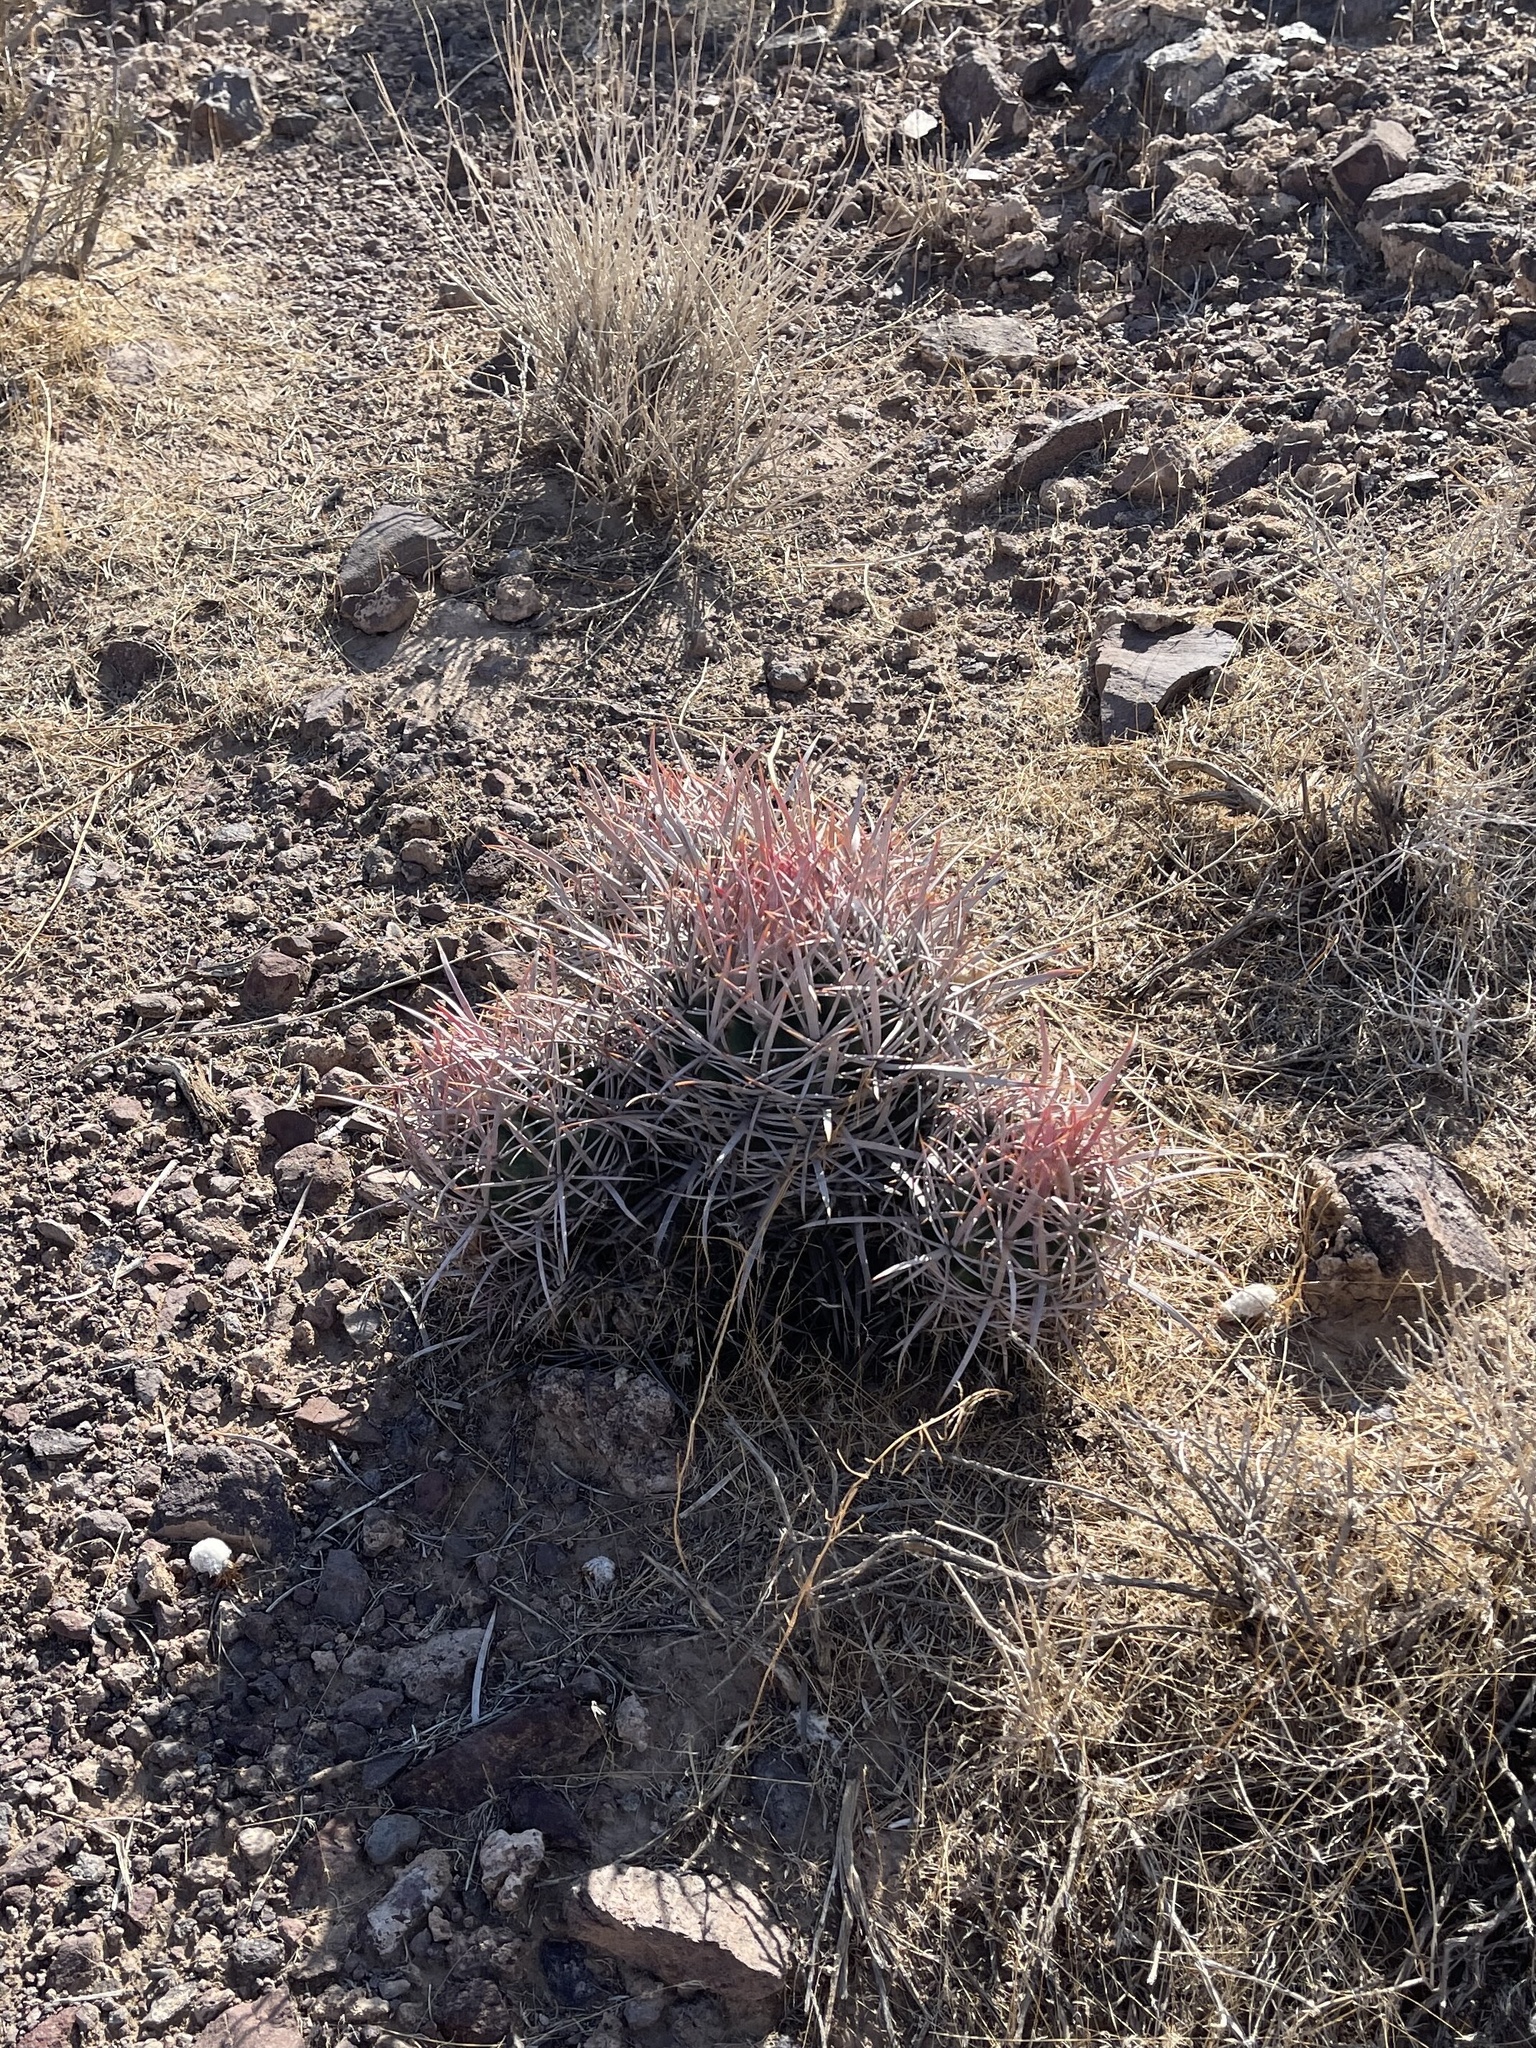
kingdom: Plantae
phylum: Tracheophyta
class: Magnoliopsida
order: Caryophyllales
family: Cactaceae
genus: Echinocactus
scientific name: Echinocactus polycephalus
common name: Cottontop cactus
